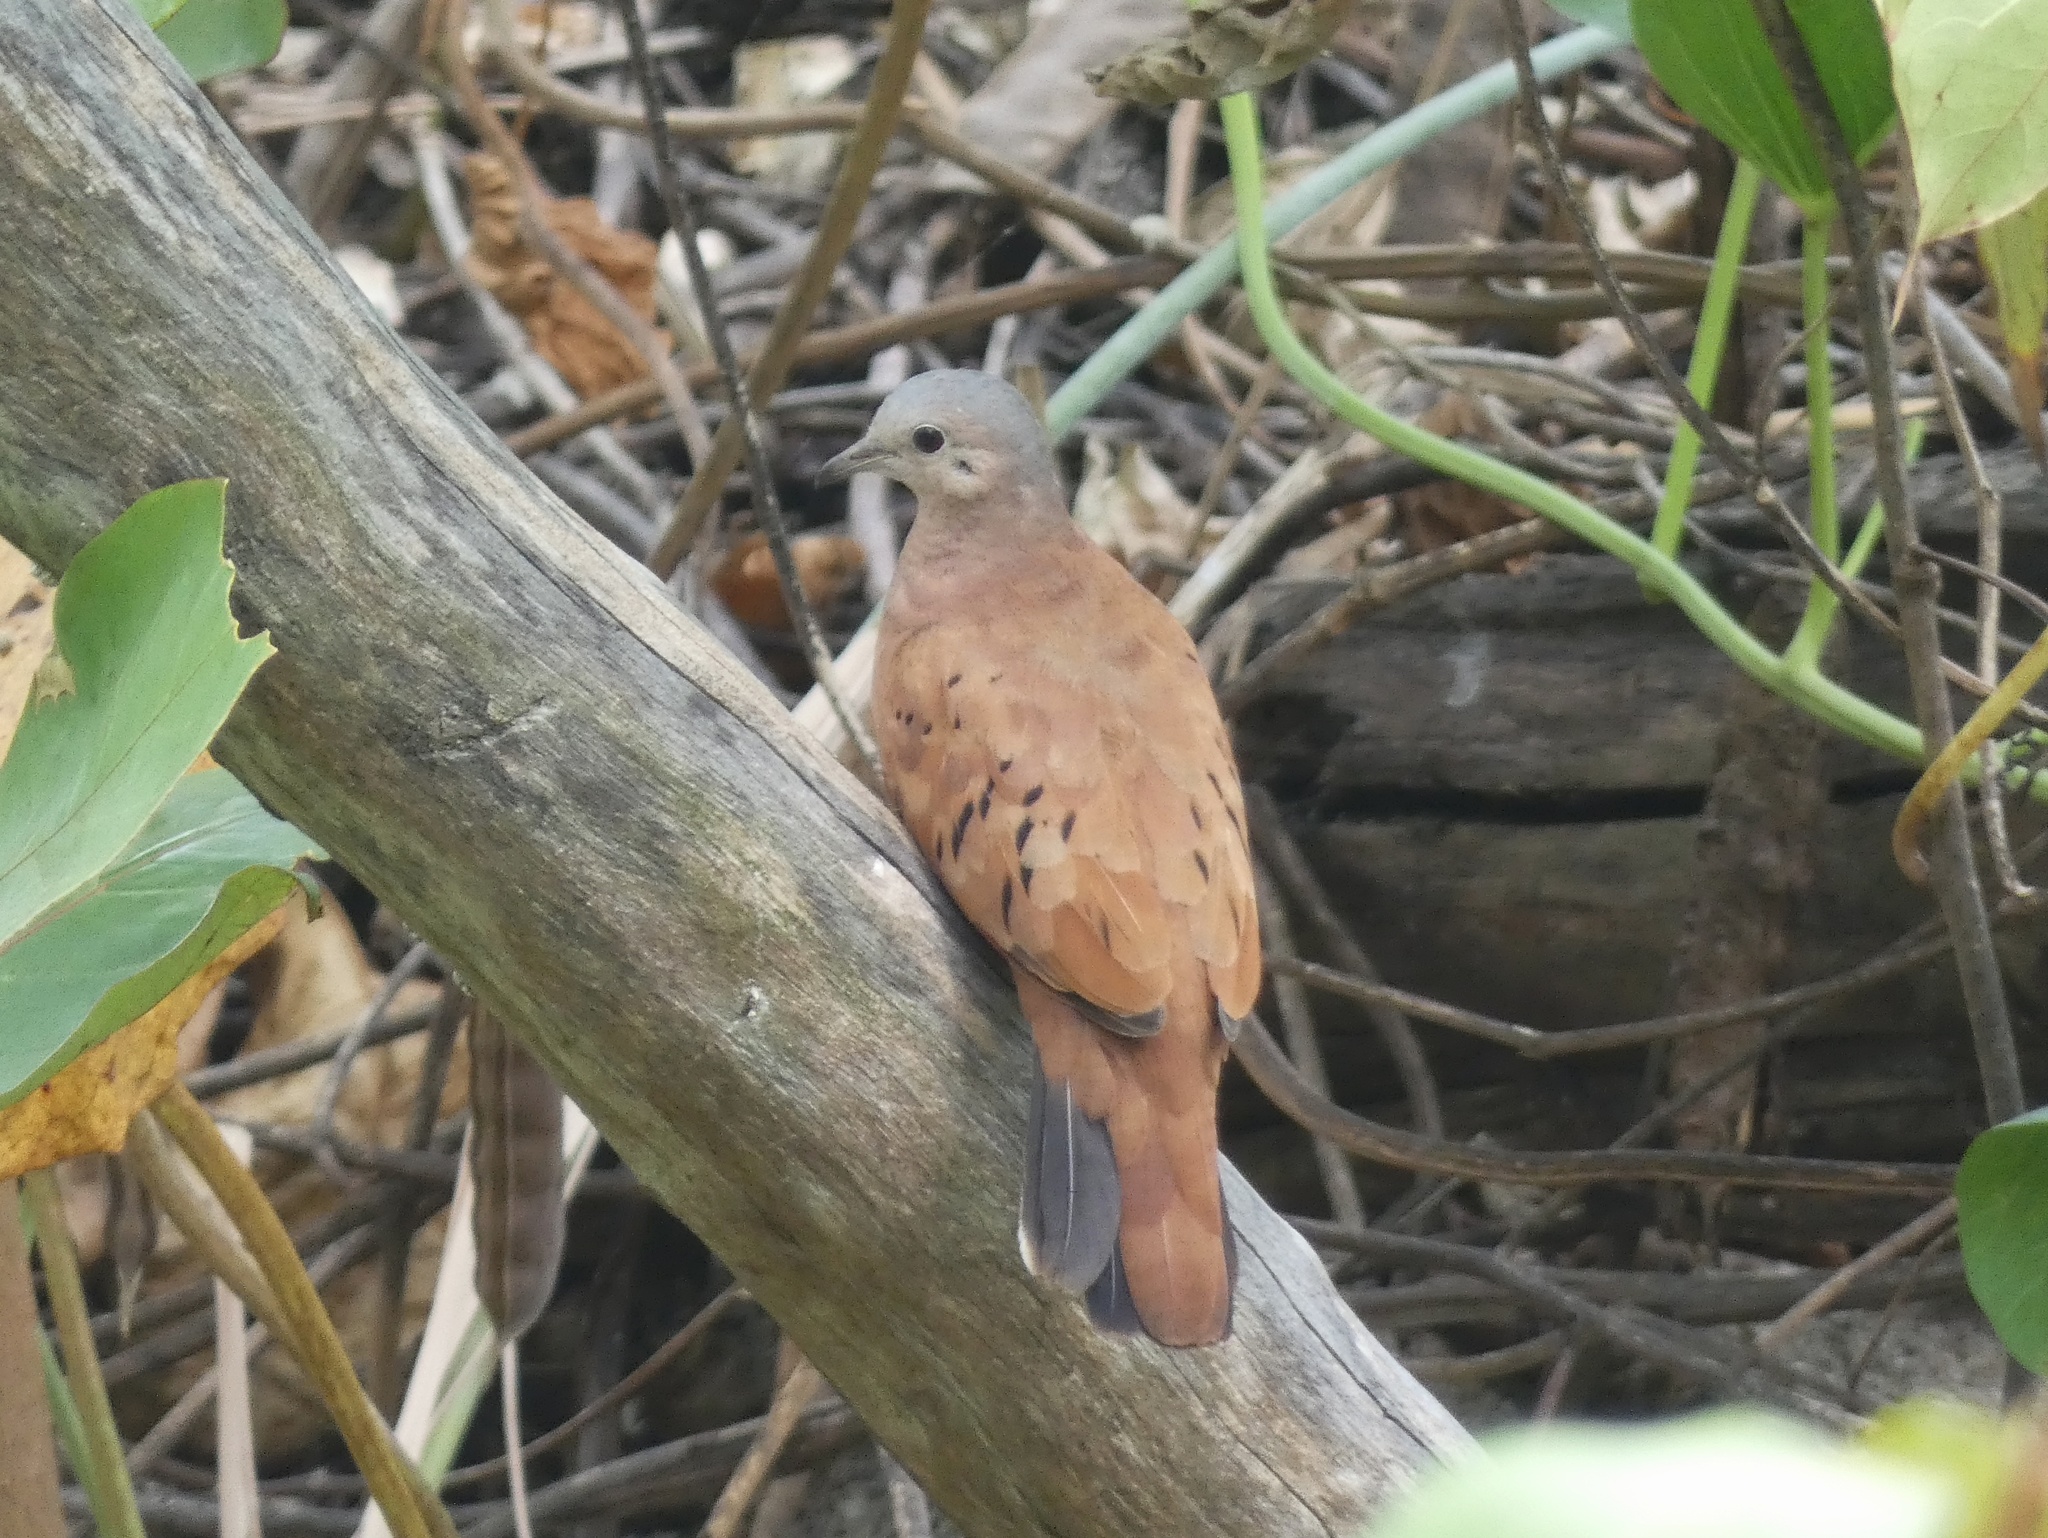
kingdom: Animalia
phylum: Chordata
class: Aves
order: Columbiformes
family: Columbidae
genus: Columbina
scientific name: Columbina talpacoti
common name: Ruddy ground dove
